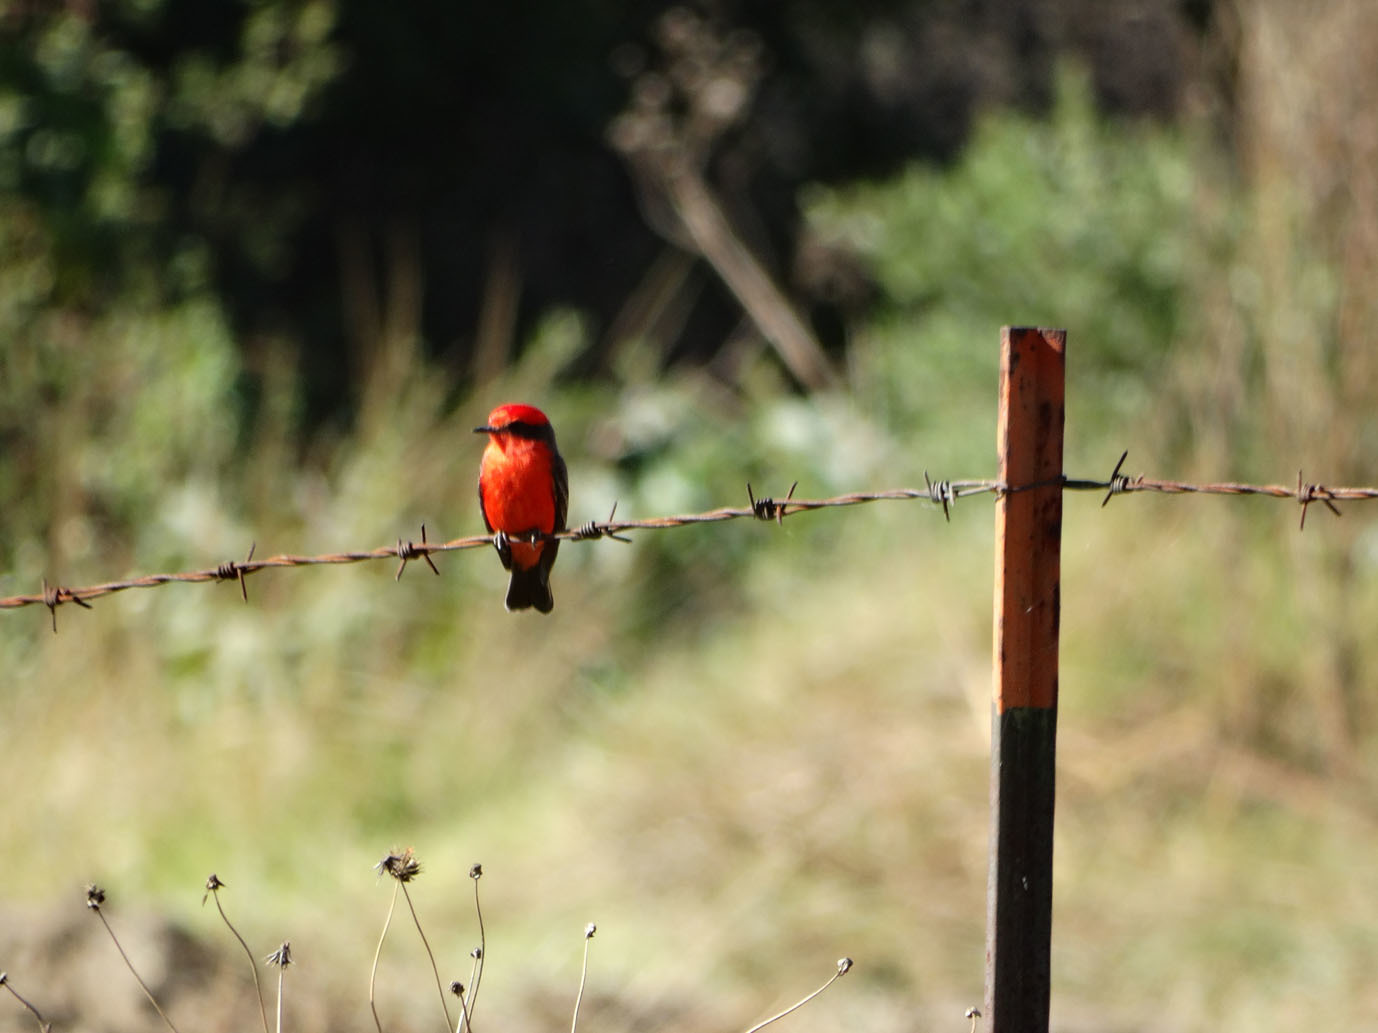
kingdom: Animalia
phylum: Chordata
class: Aves
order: Passeriformes
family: Tyrannidae
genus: Pyrocephalus
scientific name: Pyrocephalus rubinus
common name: Vermilion flycatcher
